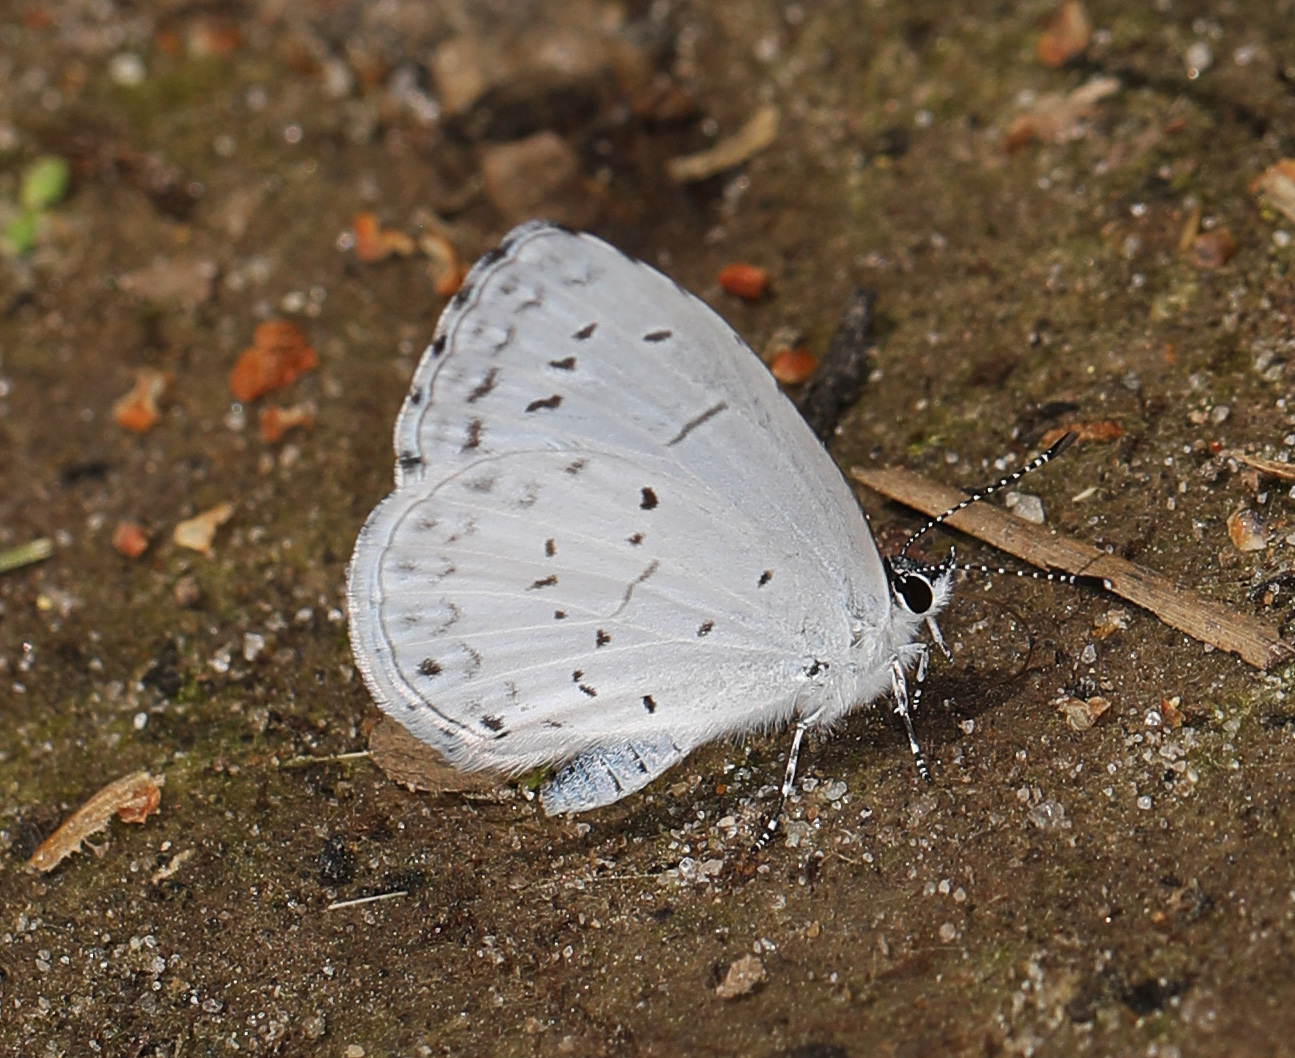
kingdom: Animalia
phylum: Arthropoda
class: Insecta
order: Lepidoptera
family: Lycaenidae
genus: Cyaniris
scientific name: Cyaniris neglecta
